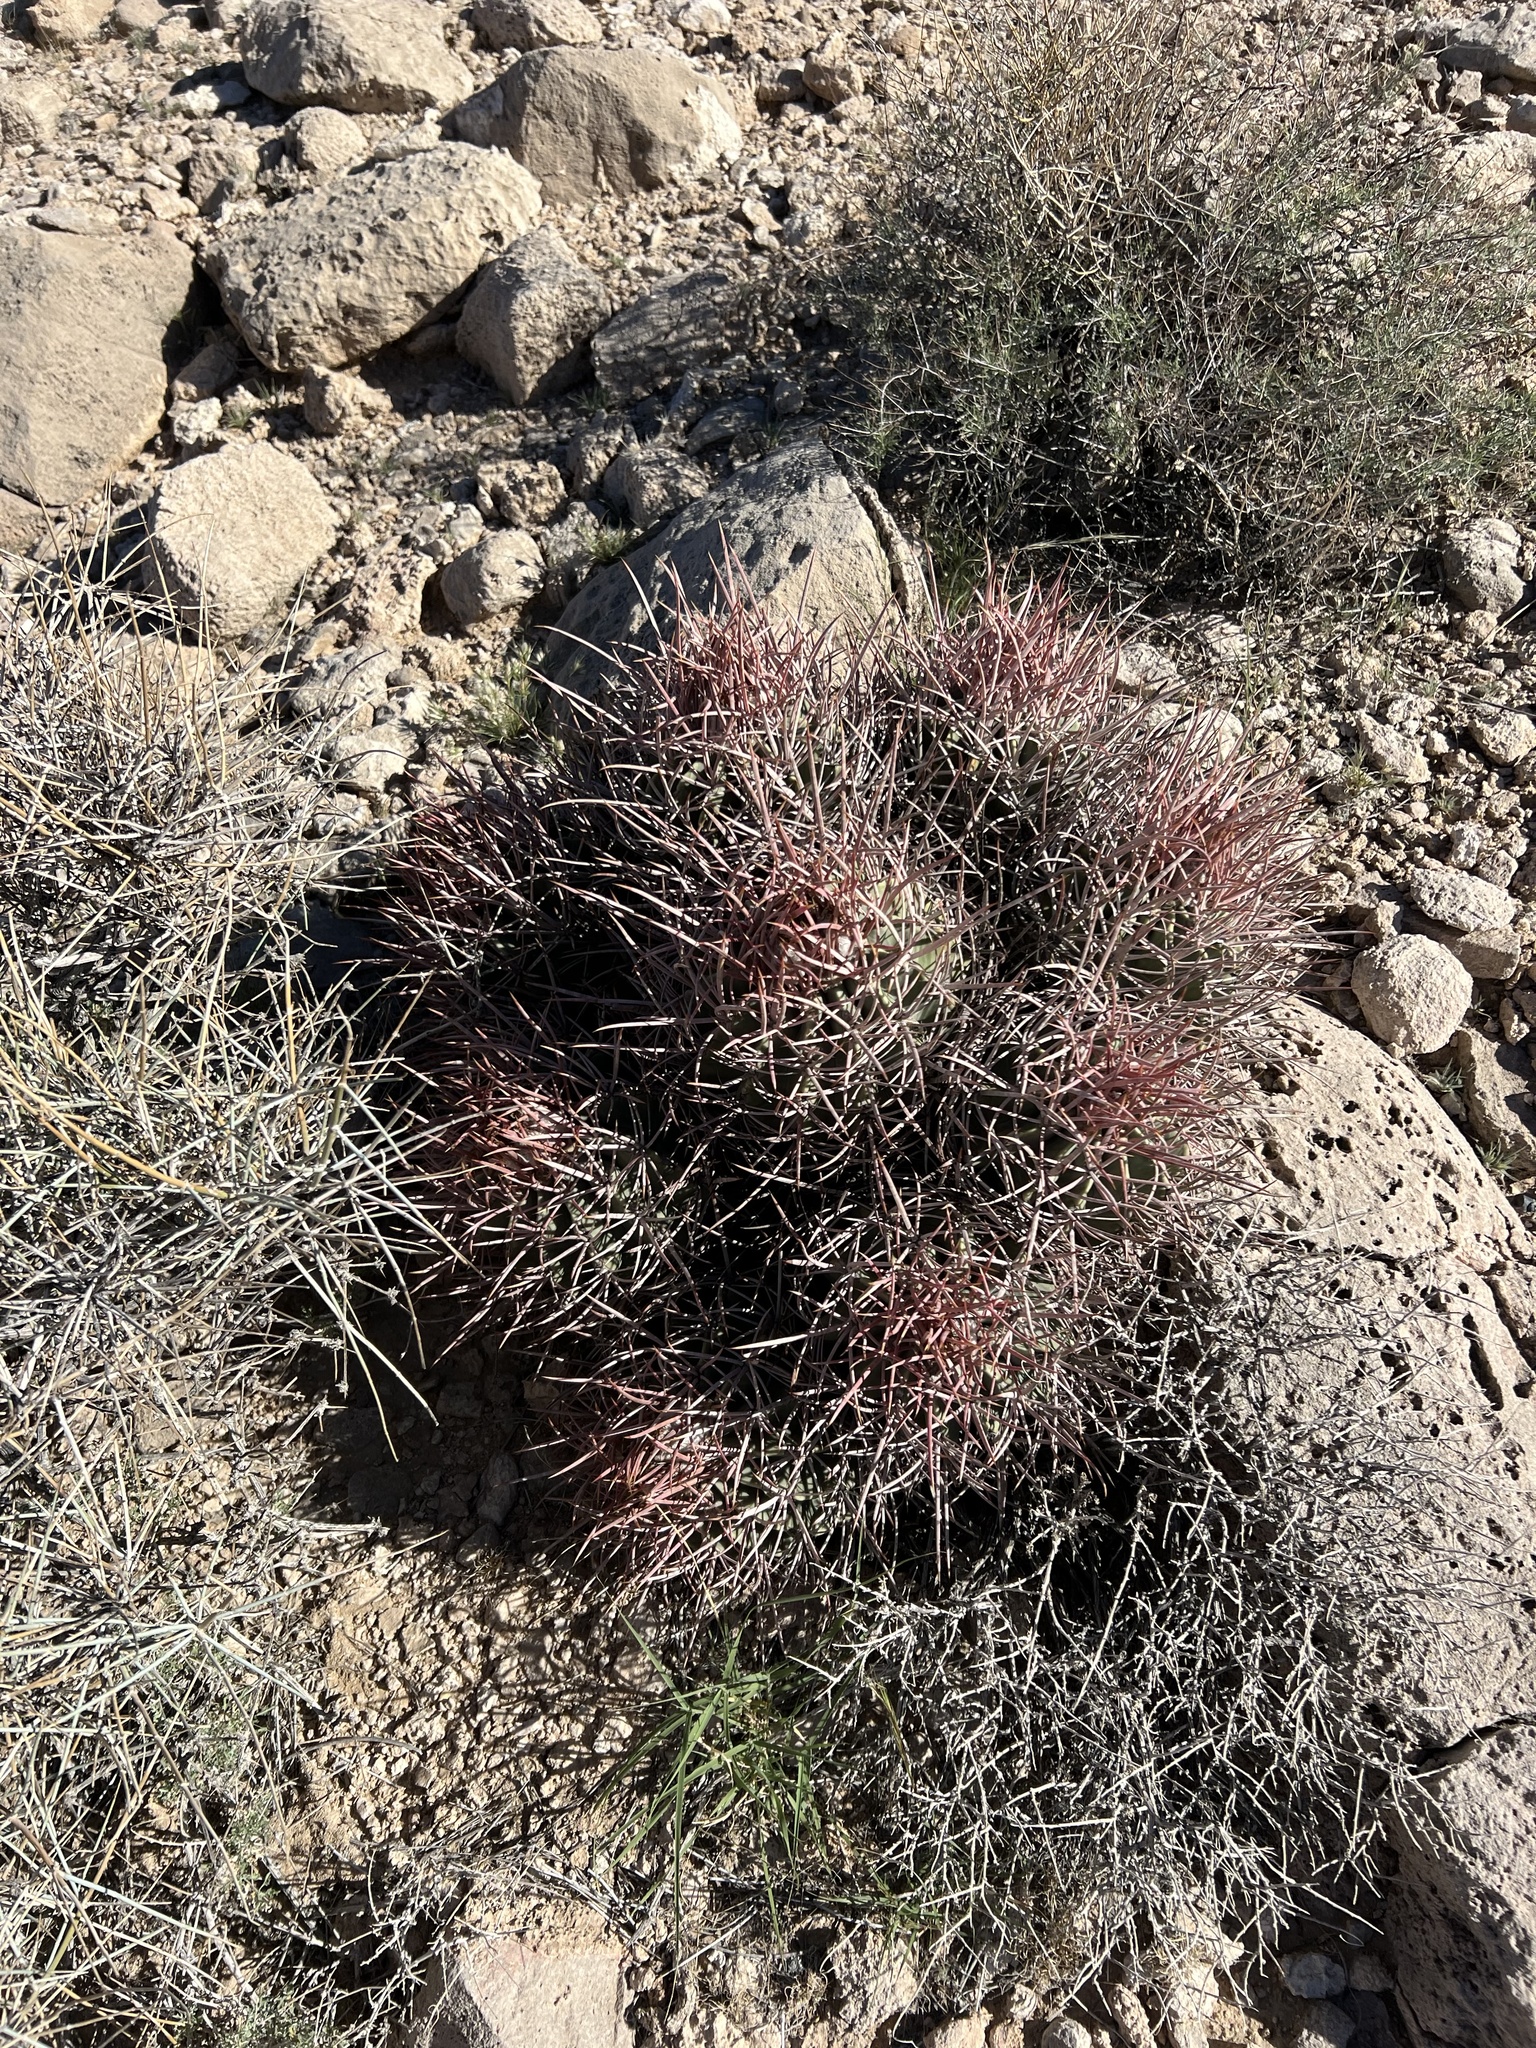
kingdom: Plantae
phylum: Tracheophyta
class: Magnoliopsida
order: Caryophyllales
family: Cactaceae
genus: Echinocactus
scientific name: Echinocactus polycephalus
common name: Cottontop cactus
